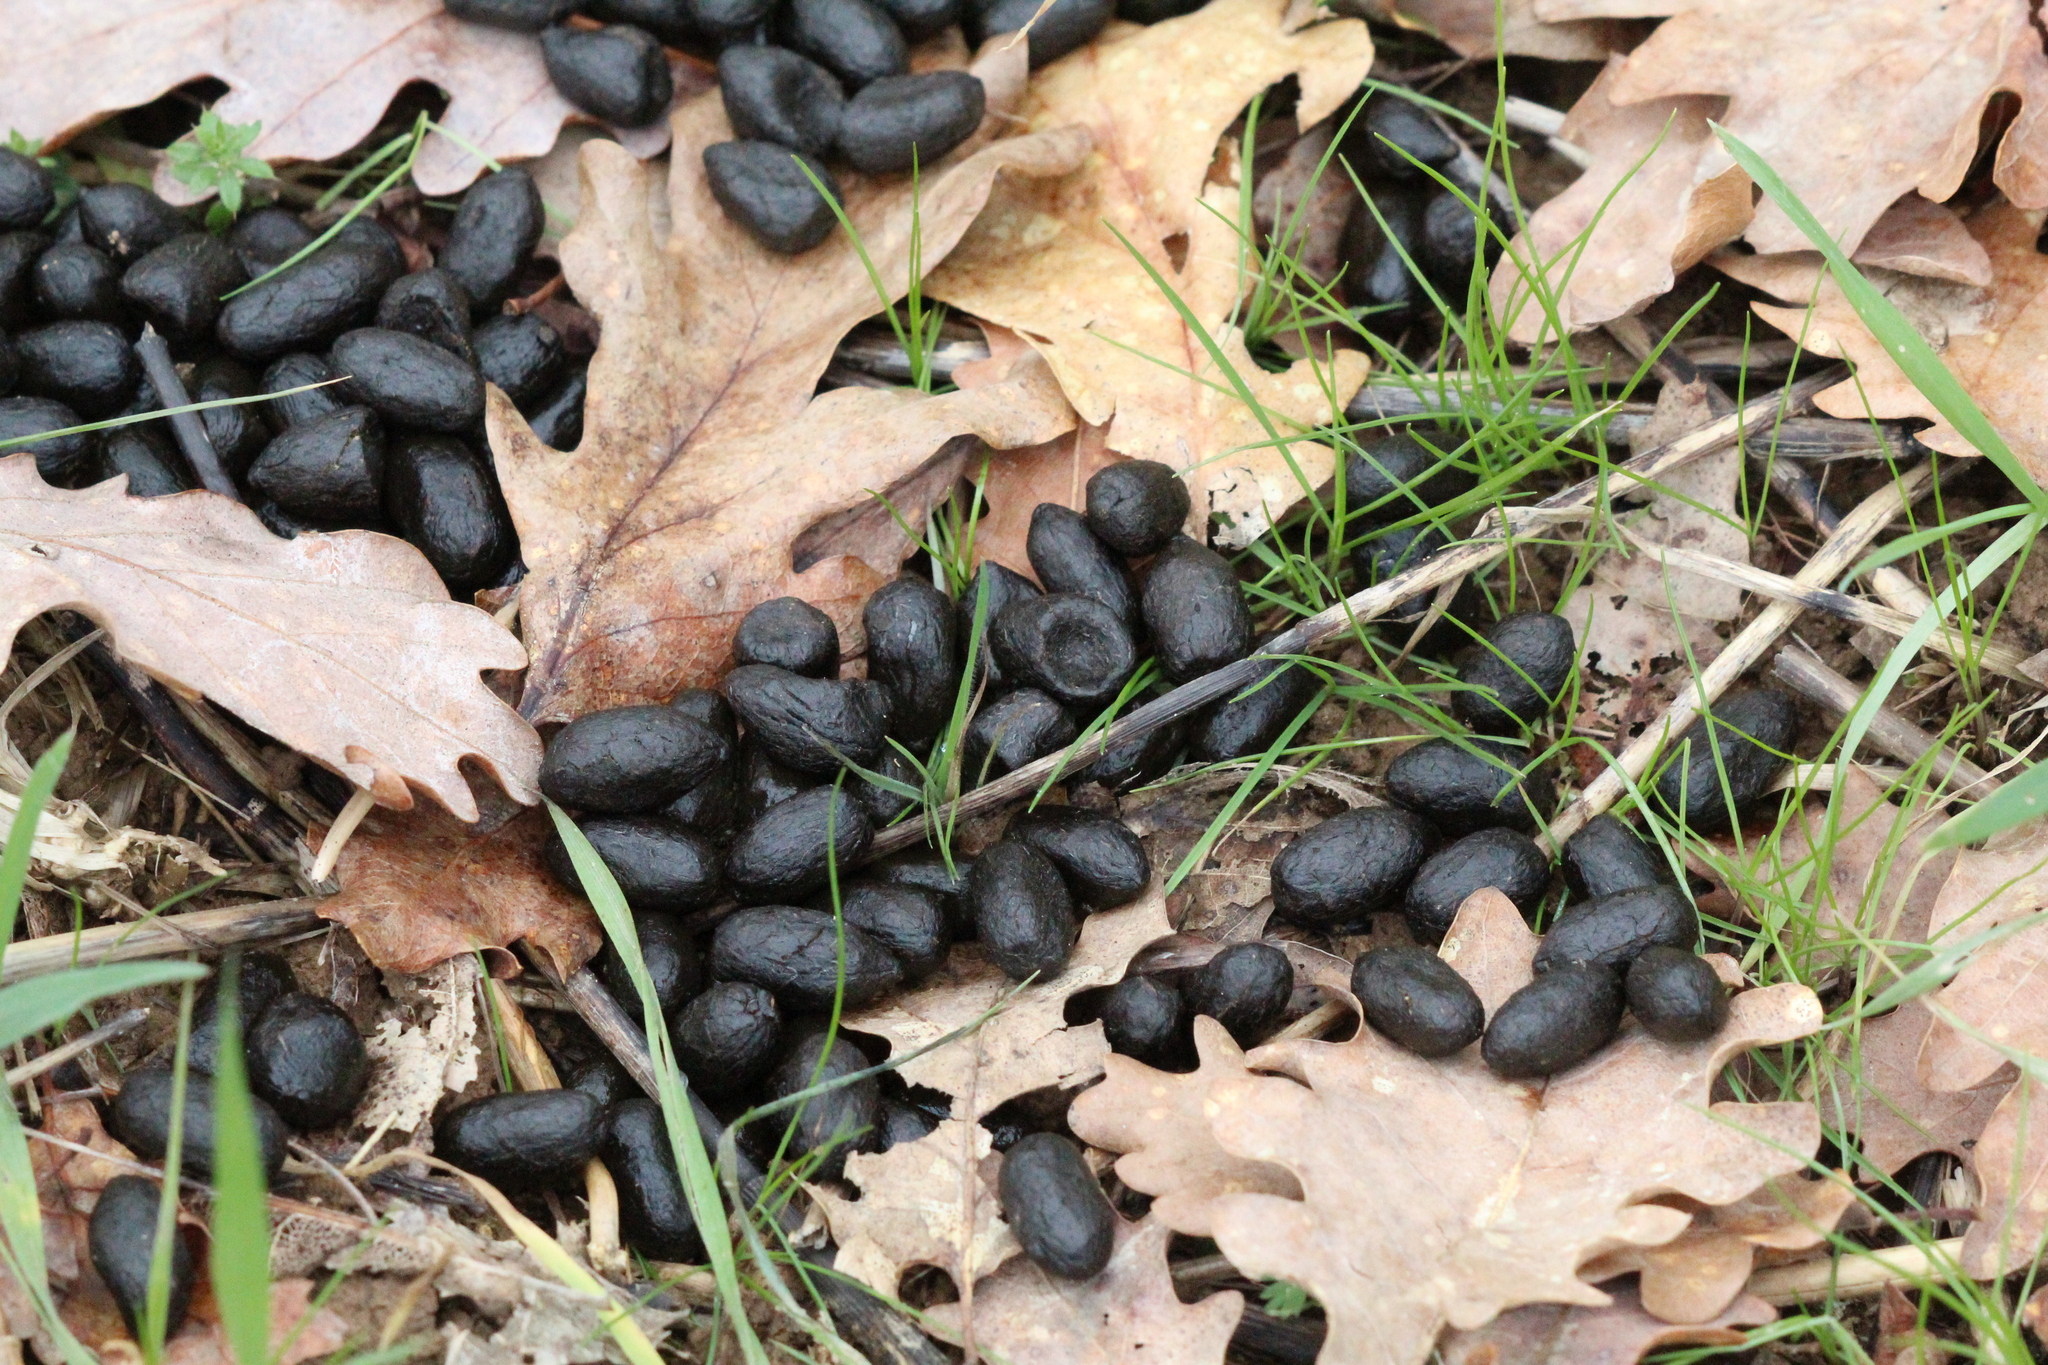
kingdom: Animalia
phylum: Chordata
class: Mammalia
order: Artiodactyla
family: Cervidae
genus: Capreolus
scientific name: Capreolus capreolus
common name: Western roe deer
